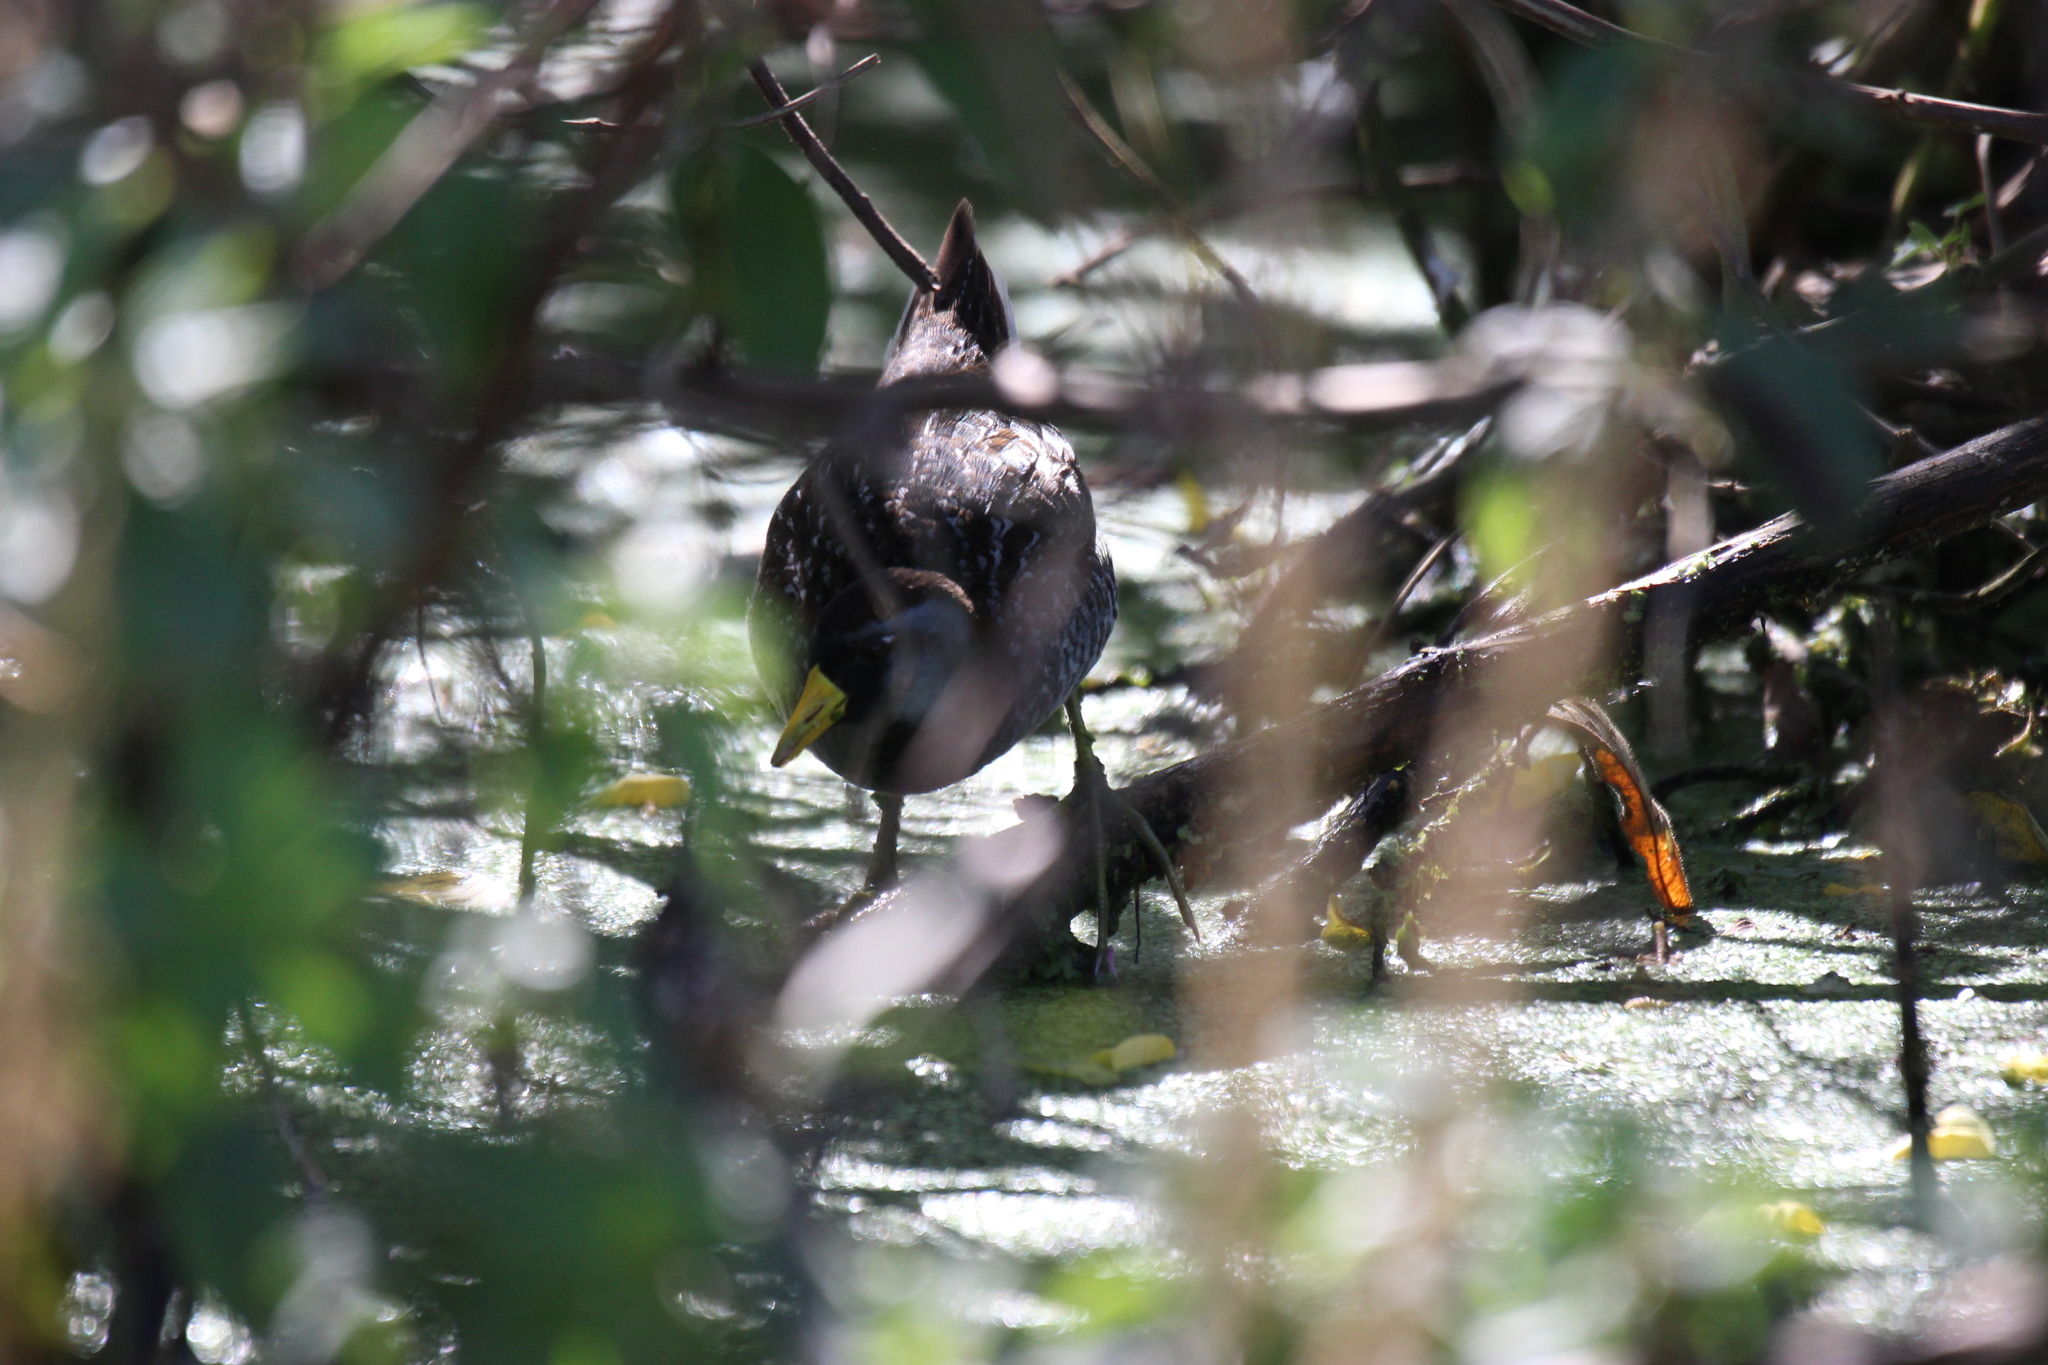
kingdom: Animalia
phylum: Chordata
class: Aves
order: Gruiformes
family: Rallidae
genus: Porzana
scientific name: Porzana carolina
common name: Sora
